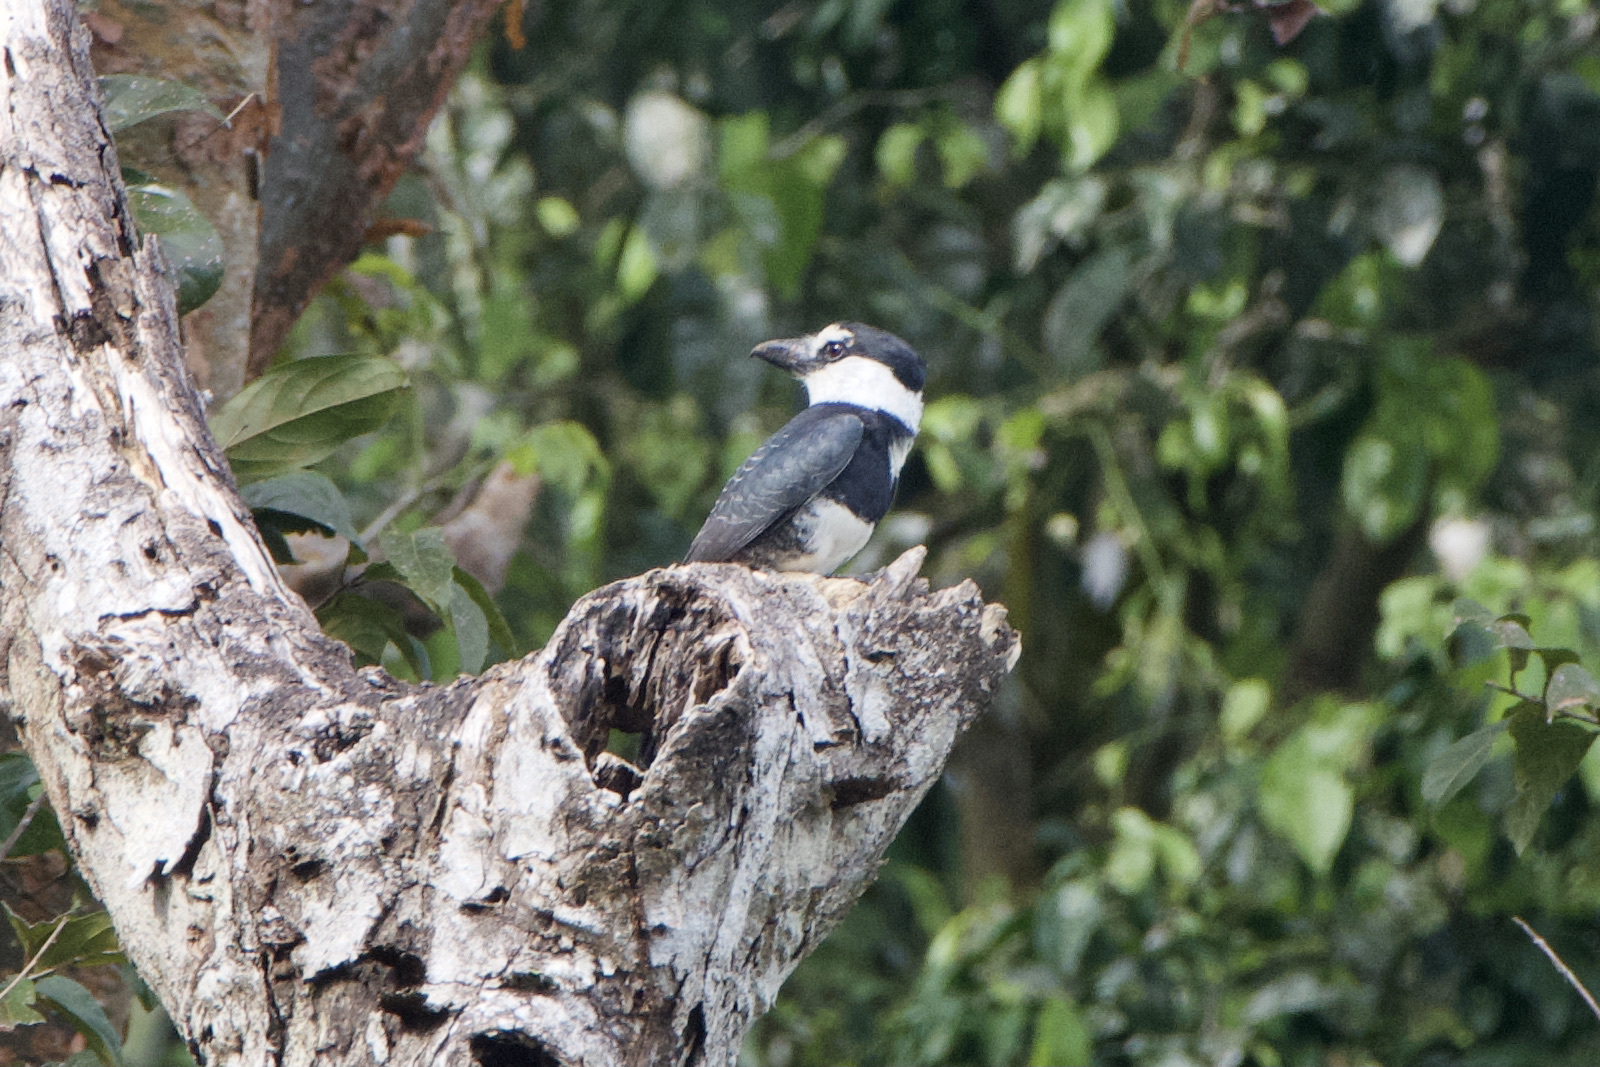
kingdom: Animalia
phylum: Chordata
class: Aves
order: Piciformes
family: Bucconidae
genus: Notharchus
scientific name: Notharchus hyperrhynchus
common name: White-necked puffbird
